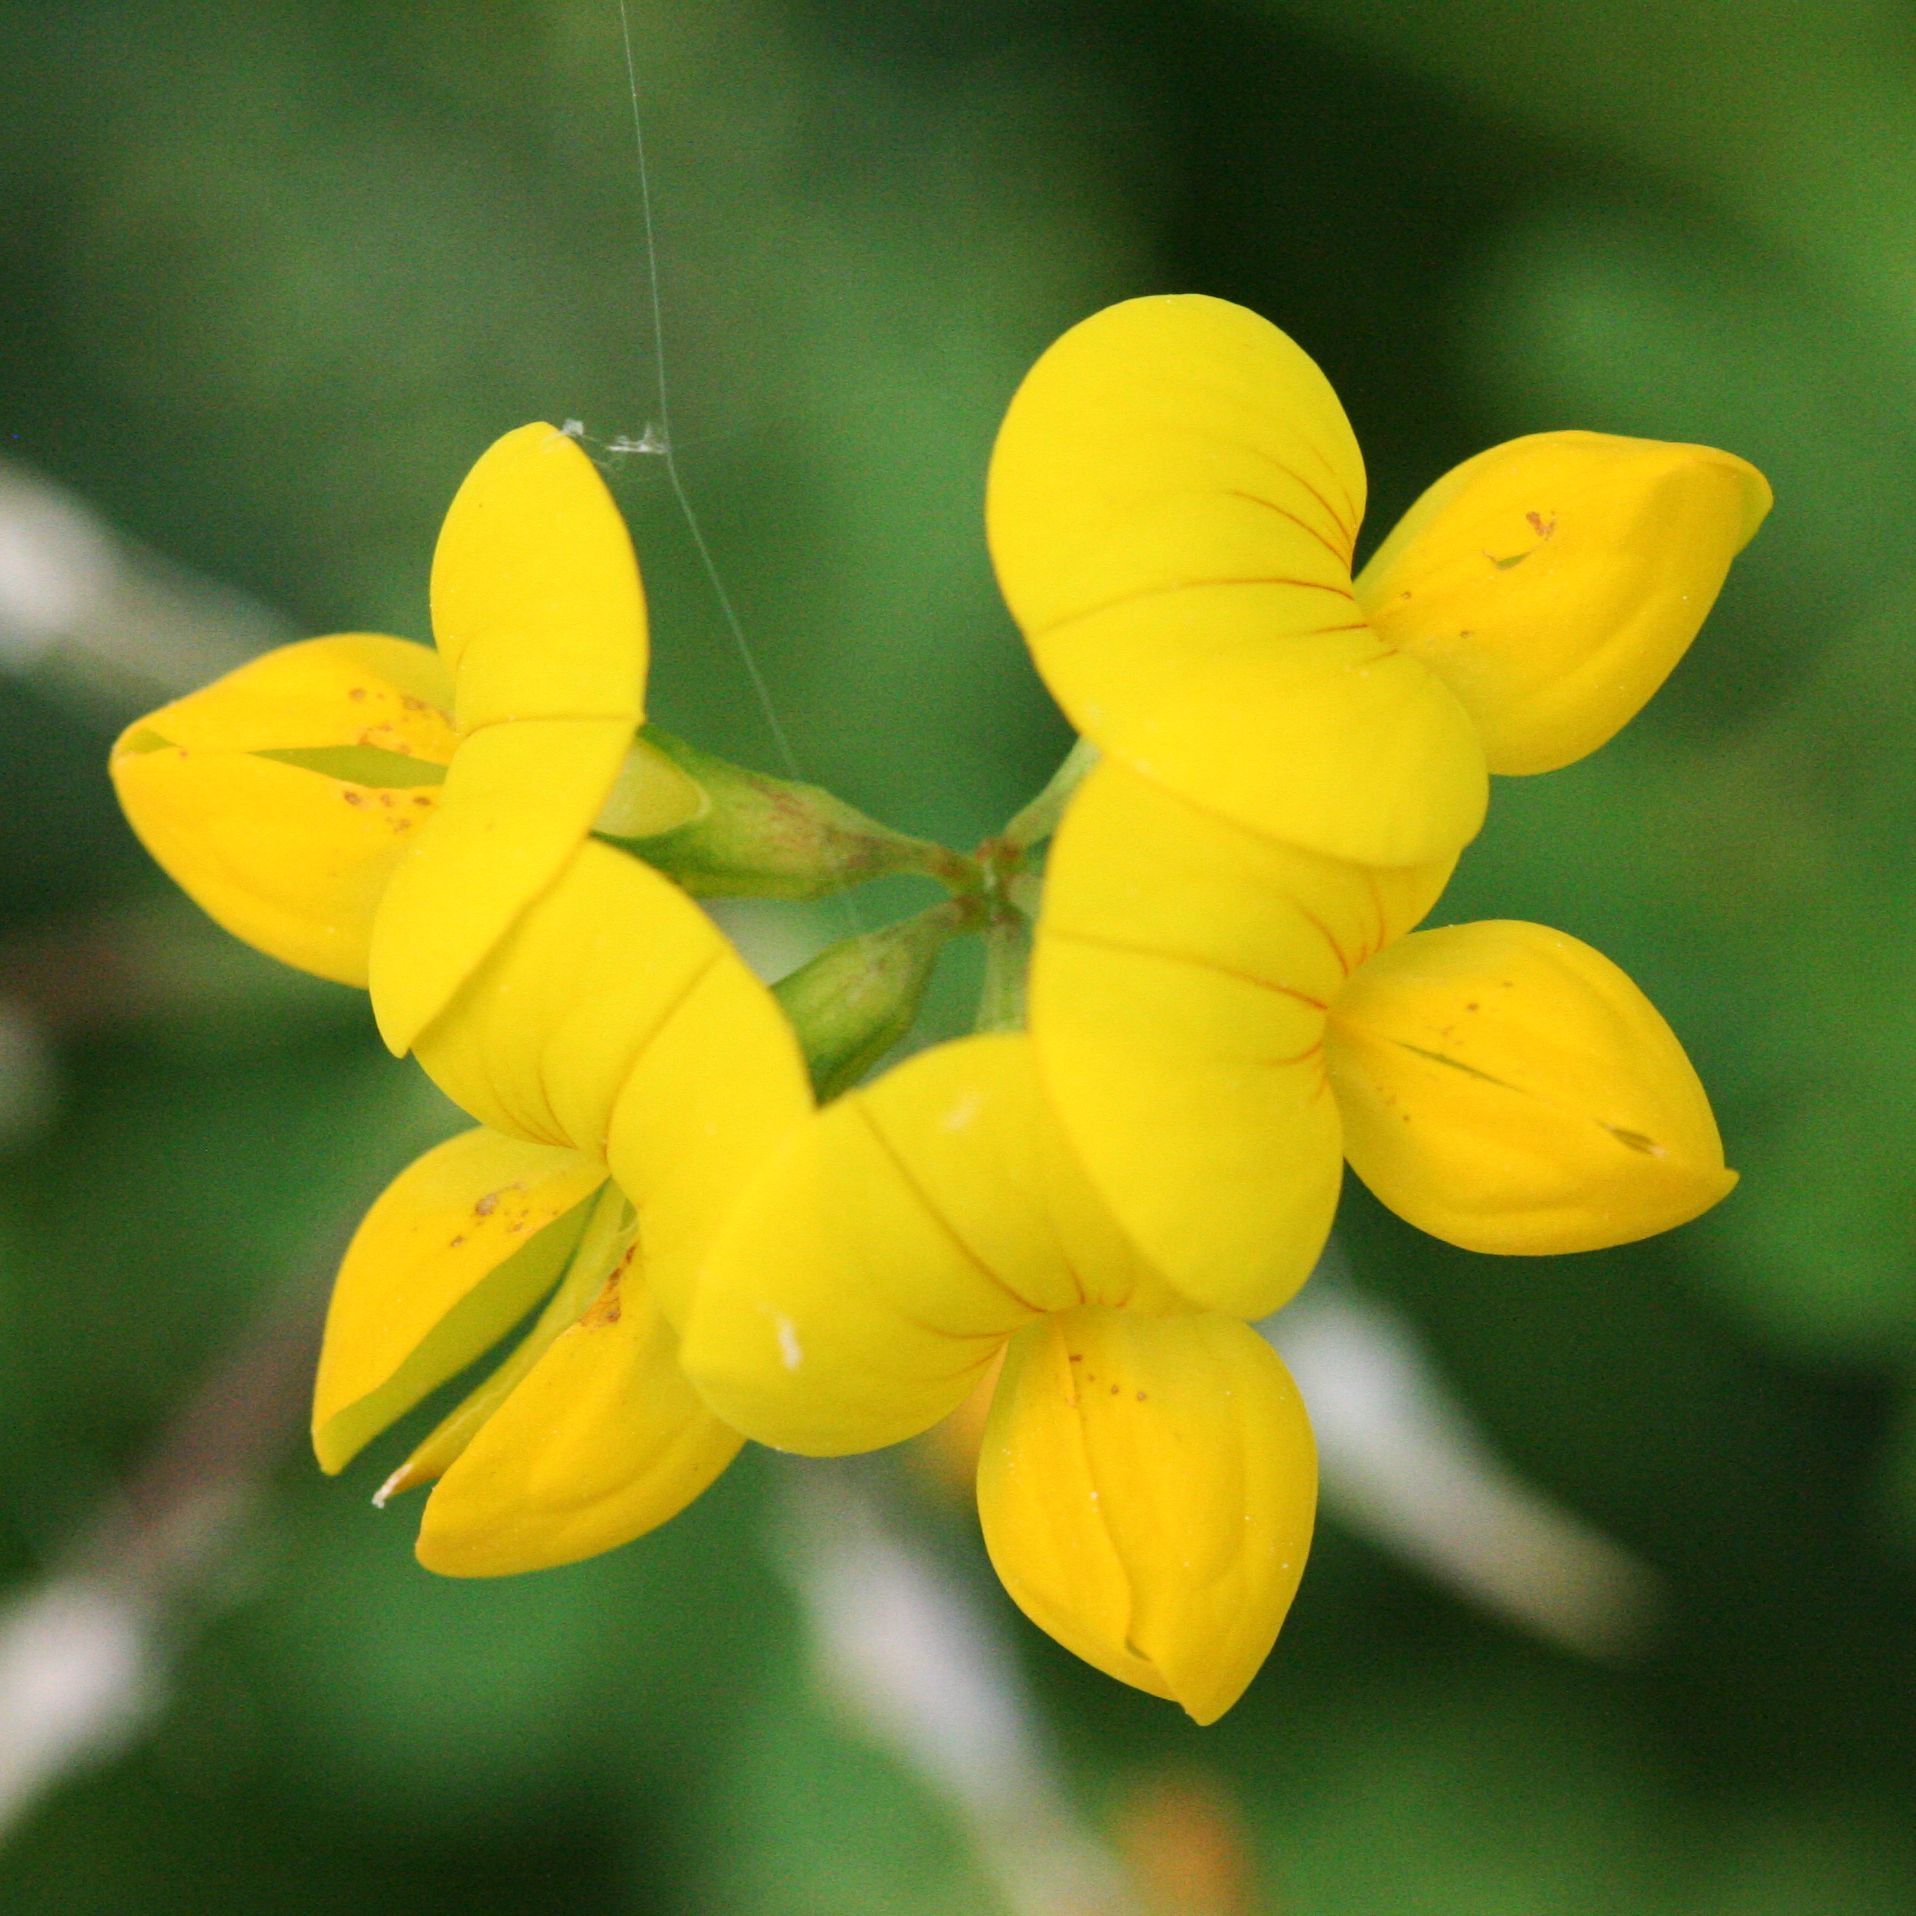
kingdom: Plantae
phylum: Tracheophyta
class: Magnoliopsida
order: Fabales
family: Fabaceae
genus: Lotus
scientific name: Lotus corniculatus
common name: Common bird's-foot-trefoil
